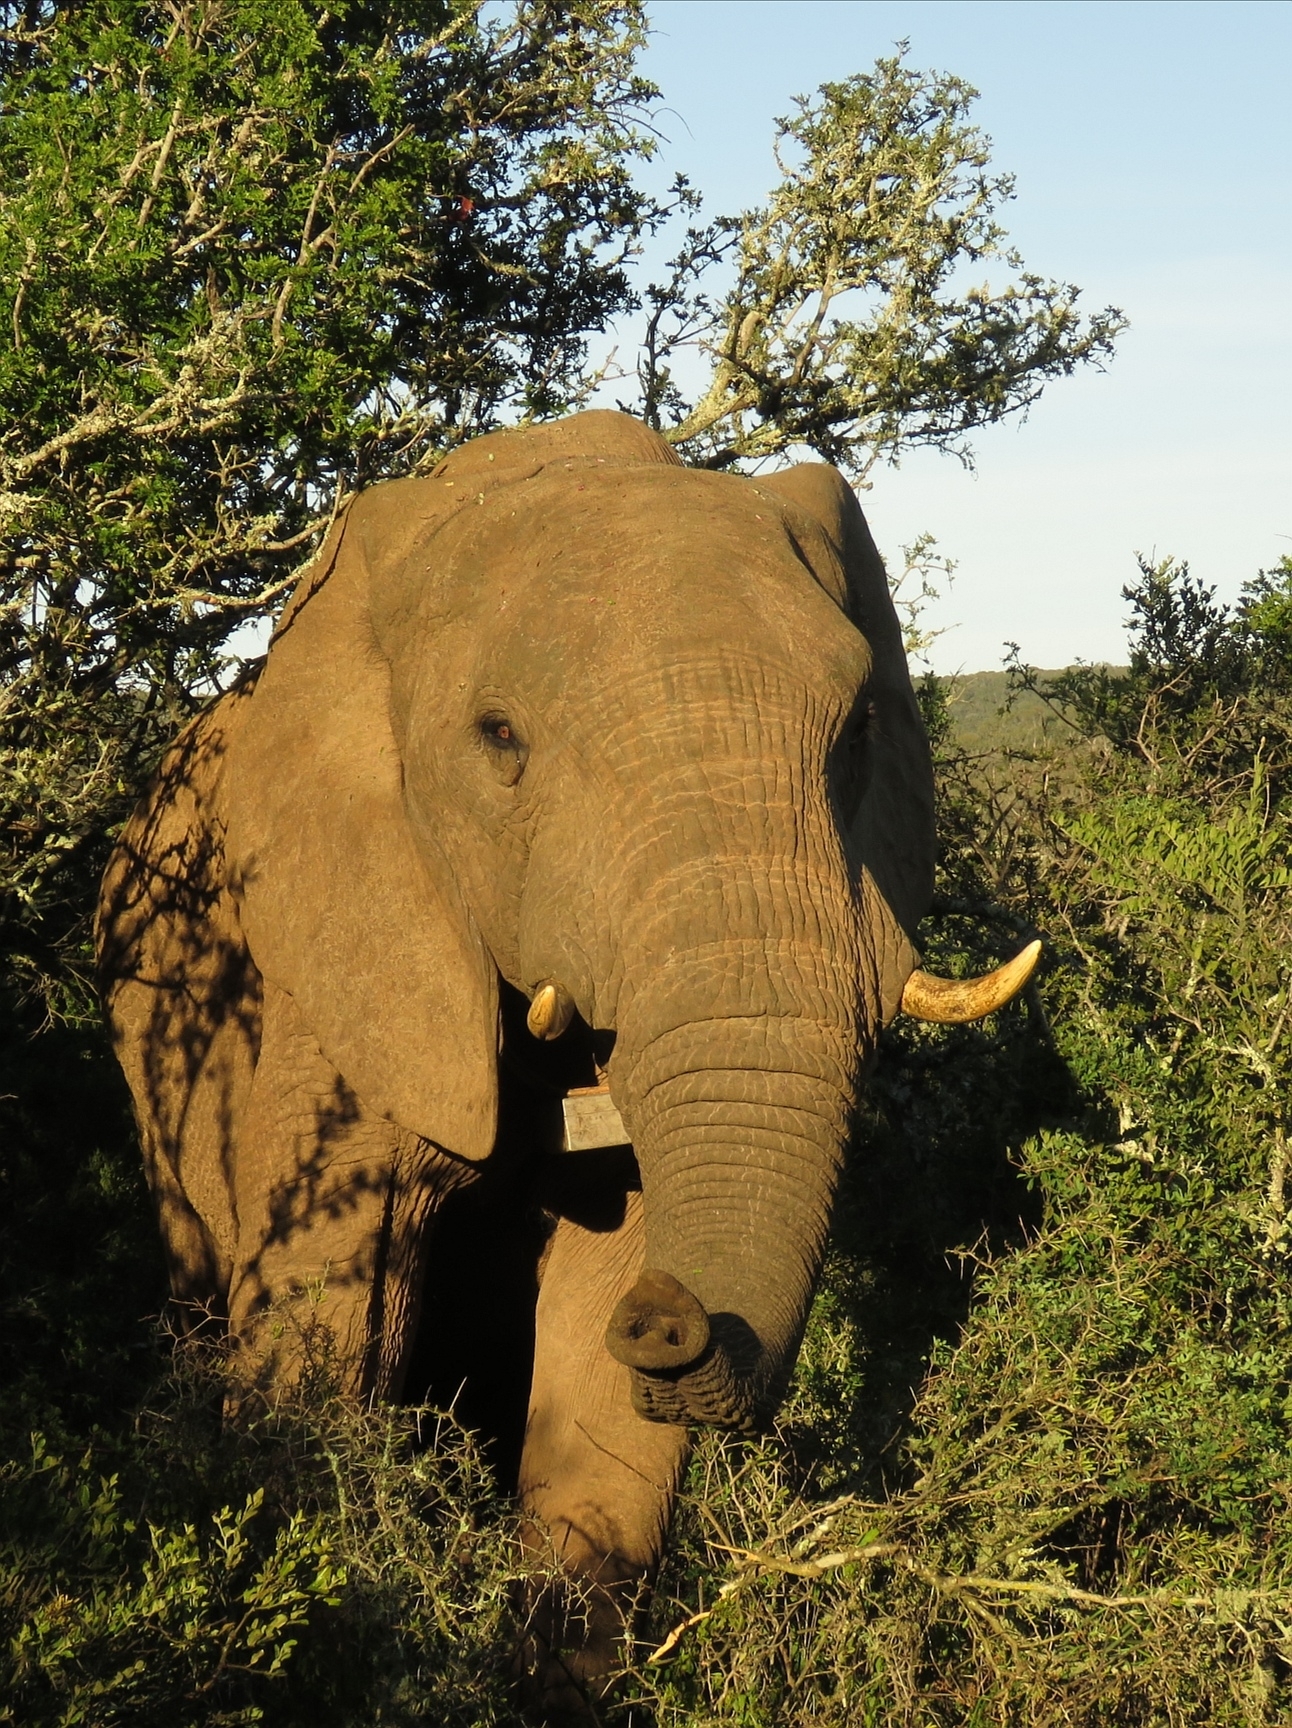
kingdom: Animalia
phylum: Chordata
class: Mammalia
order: Proboscidea
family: Elephantidae
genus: Loxodonta
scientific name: Loxodonta africana
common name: African elephant
